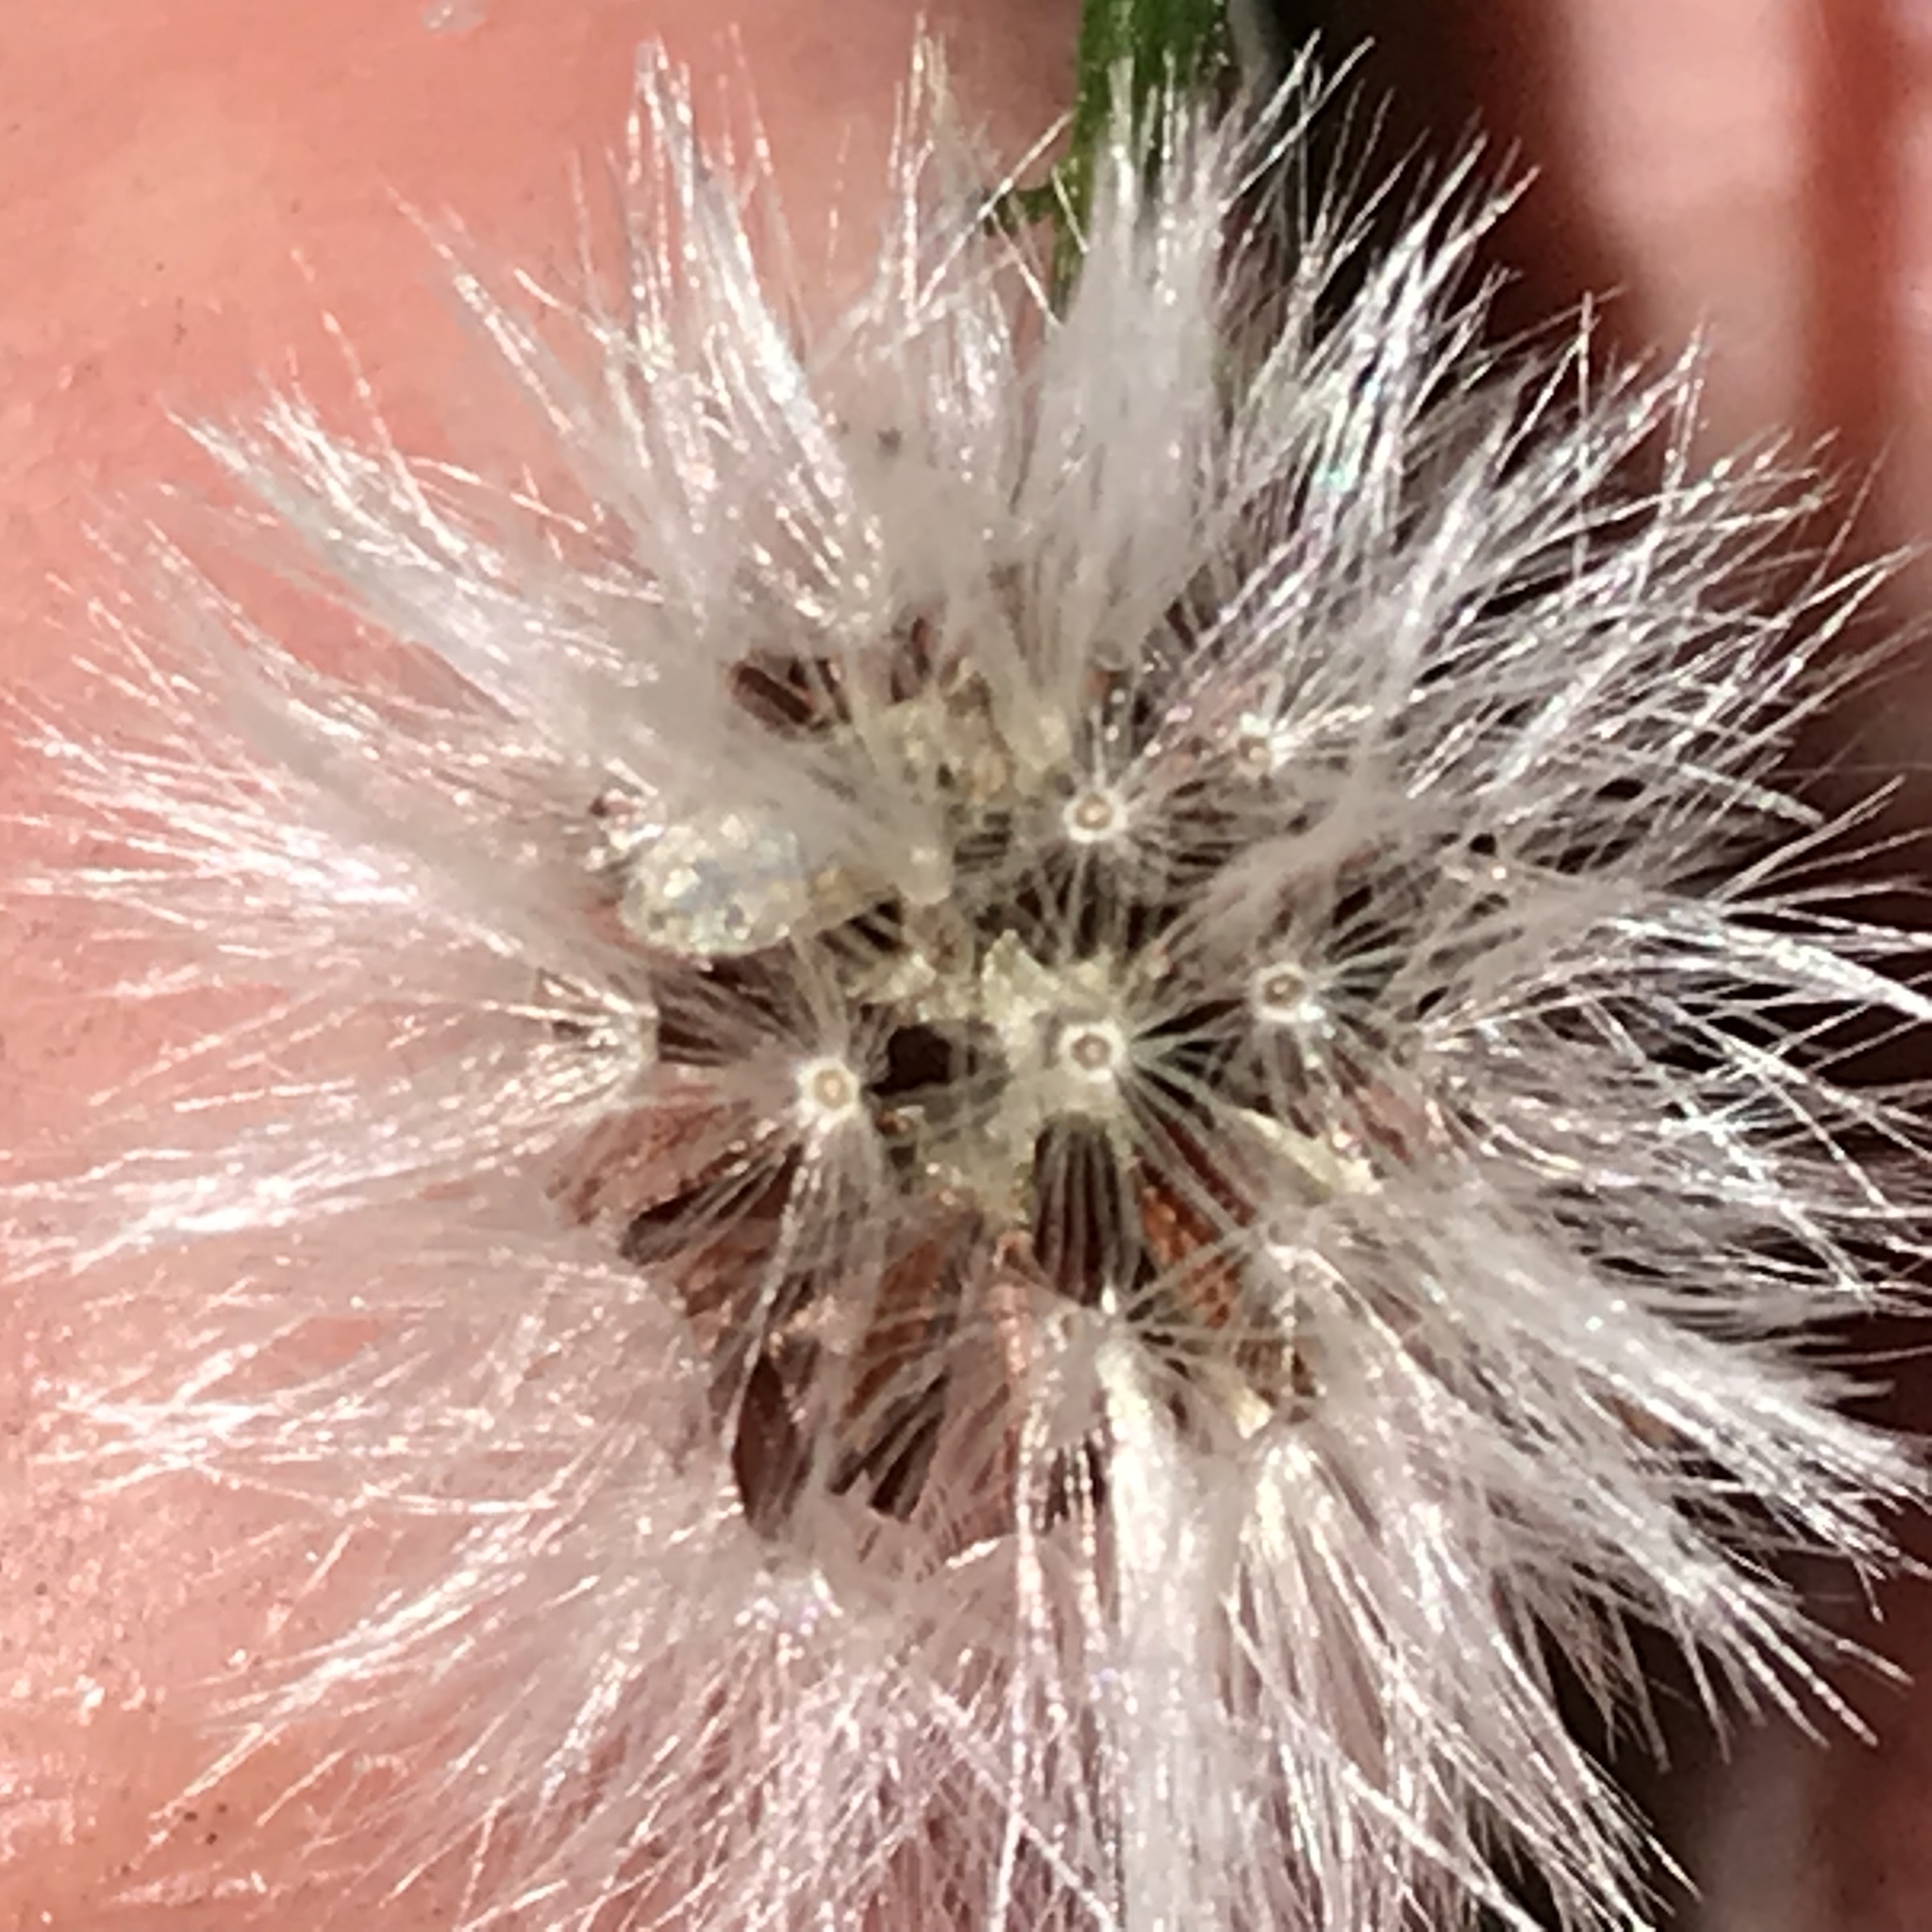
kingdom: Plantae
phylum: Tracheophyta
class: Magnoliopsida
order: Asterales
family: Asteraceae
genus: Packera
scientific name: Packera coahuilensis
